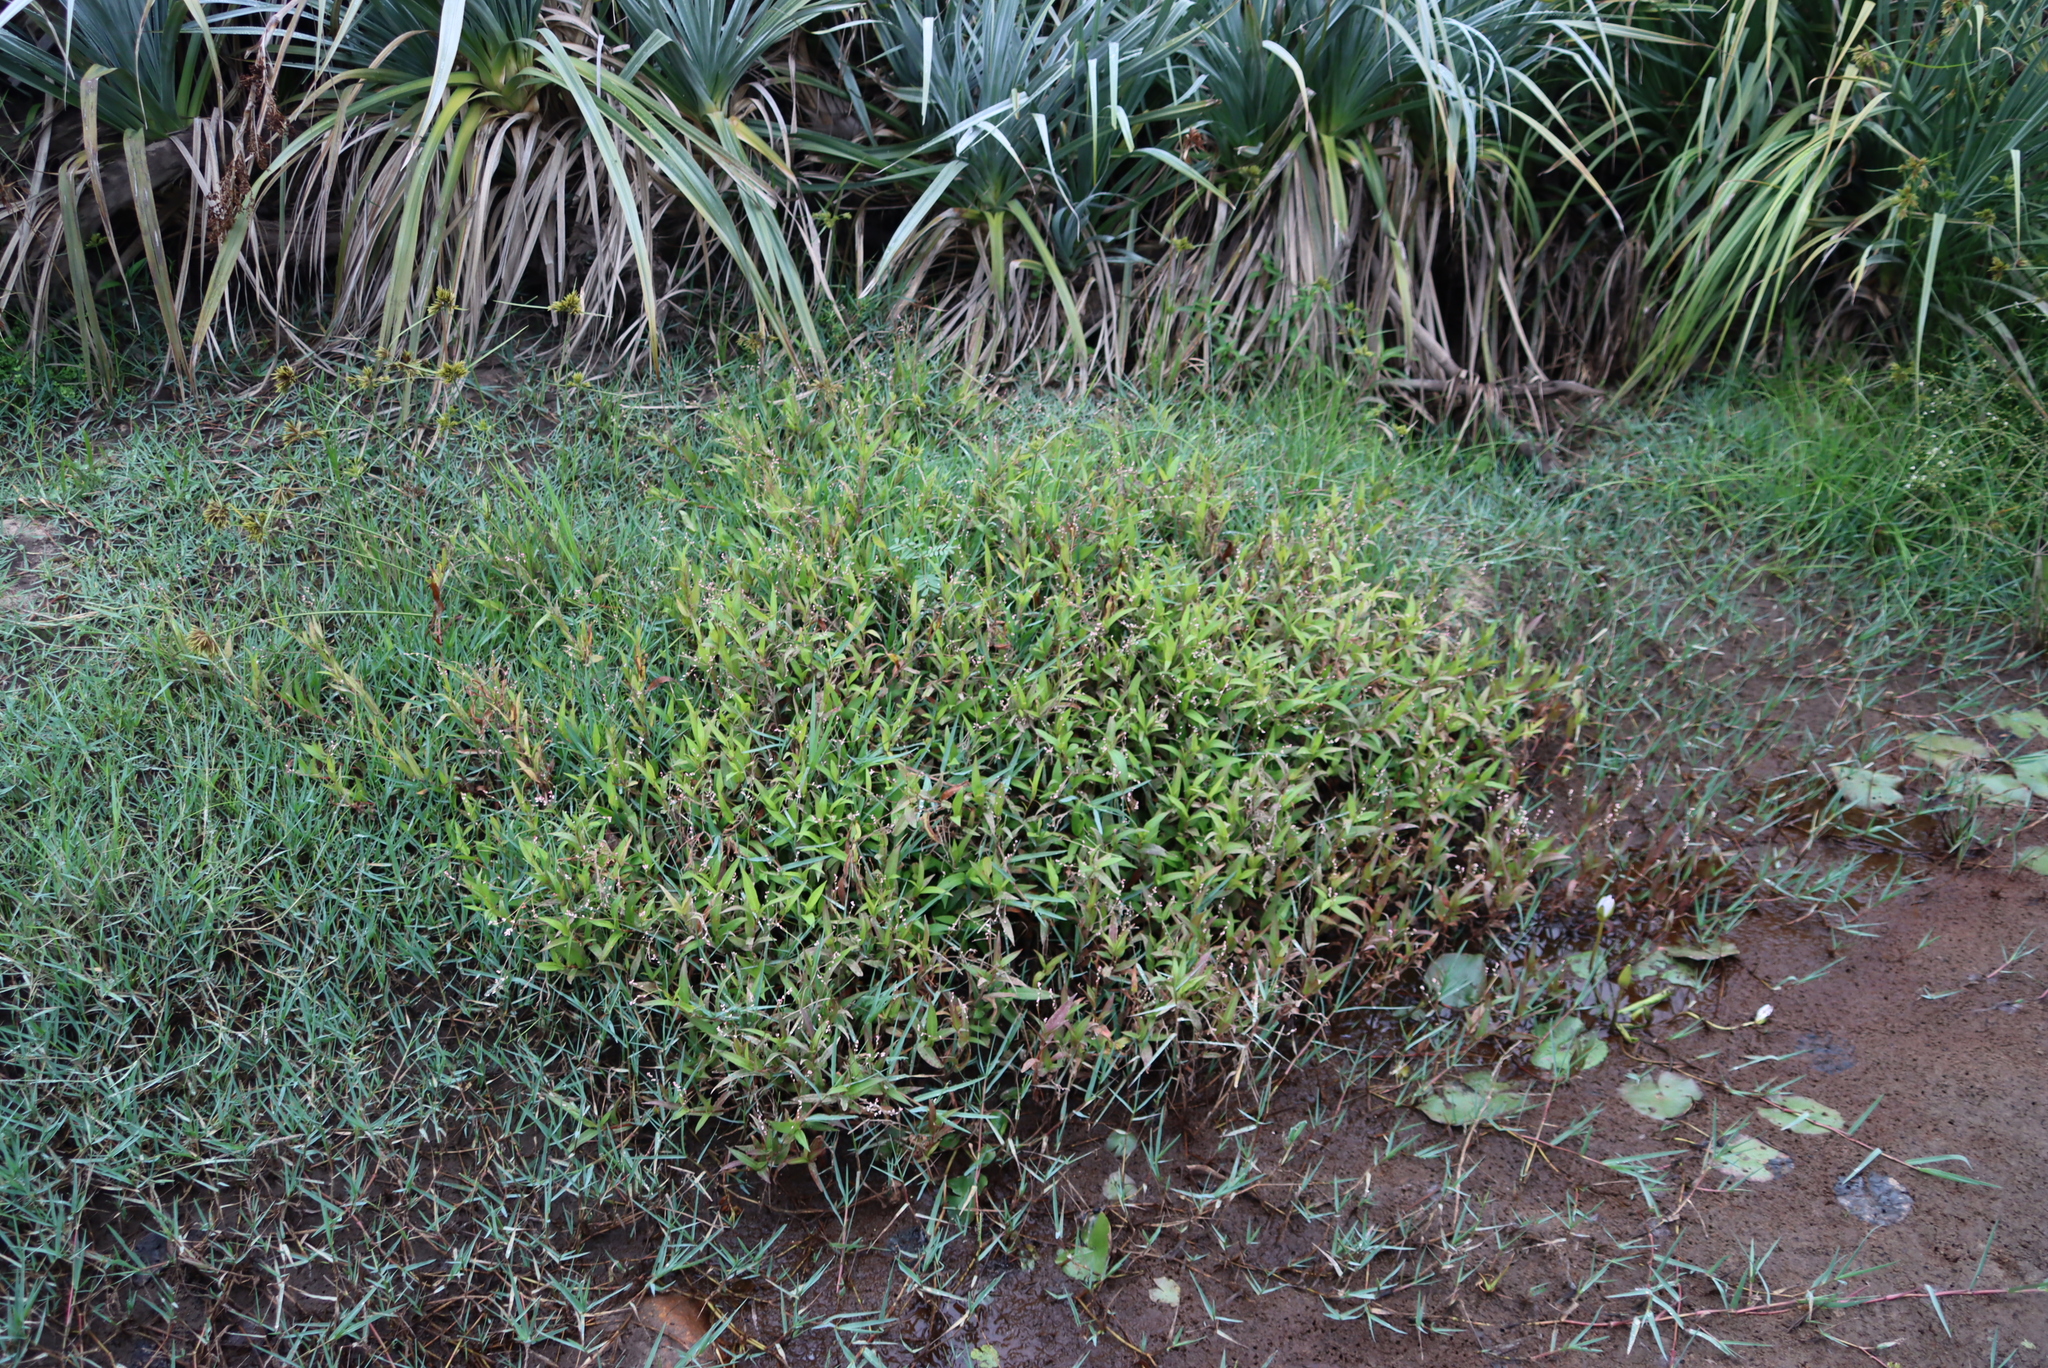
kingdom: Plantae
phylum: Tracheophyta
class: Liliopsida
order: Poales
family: Juncaceae
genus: Juncus
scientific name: Juncus lomatophyllus
